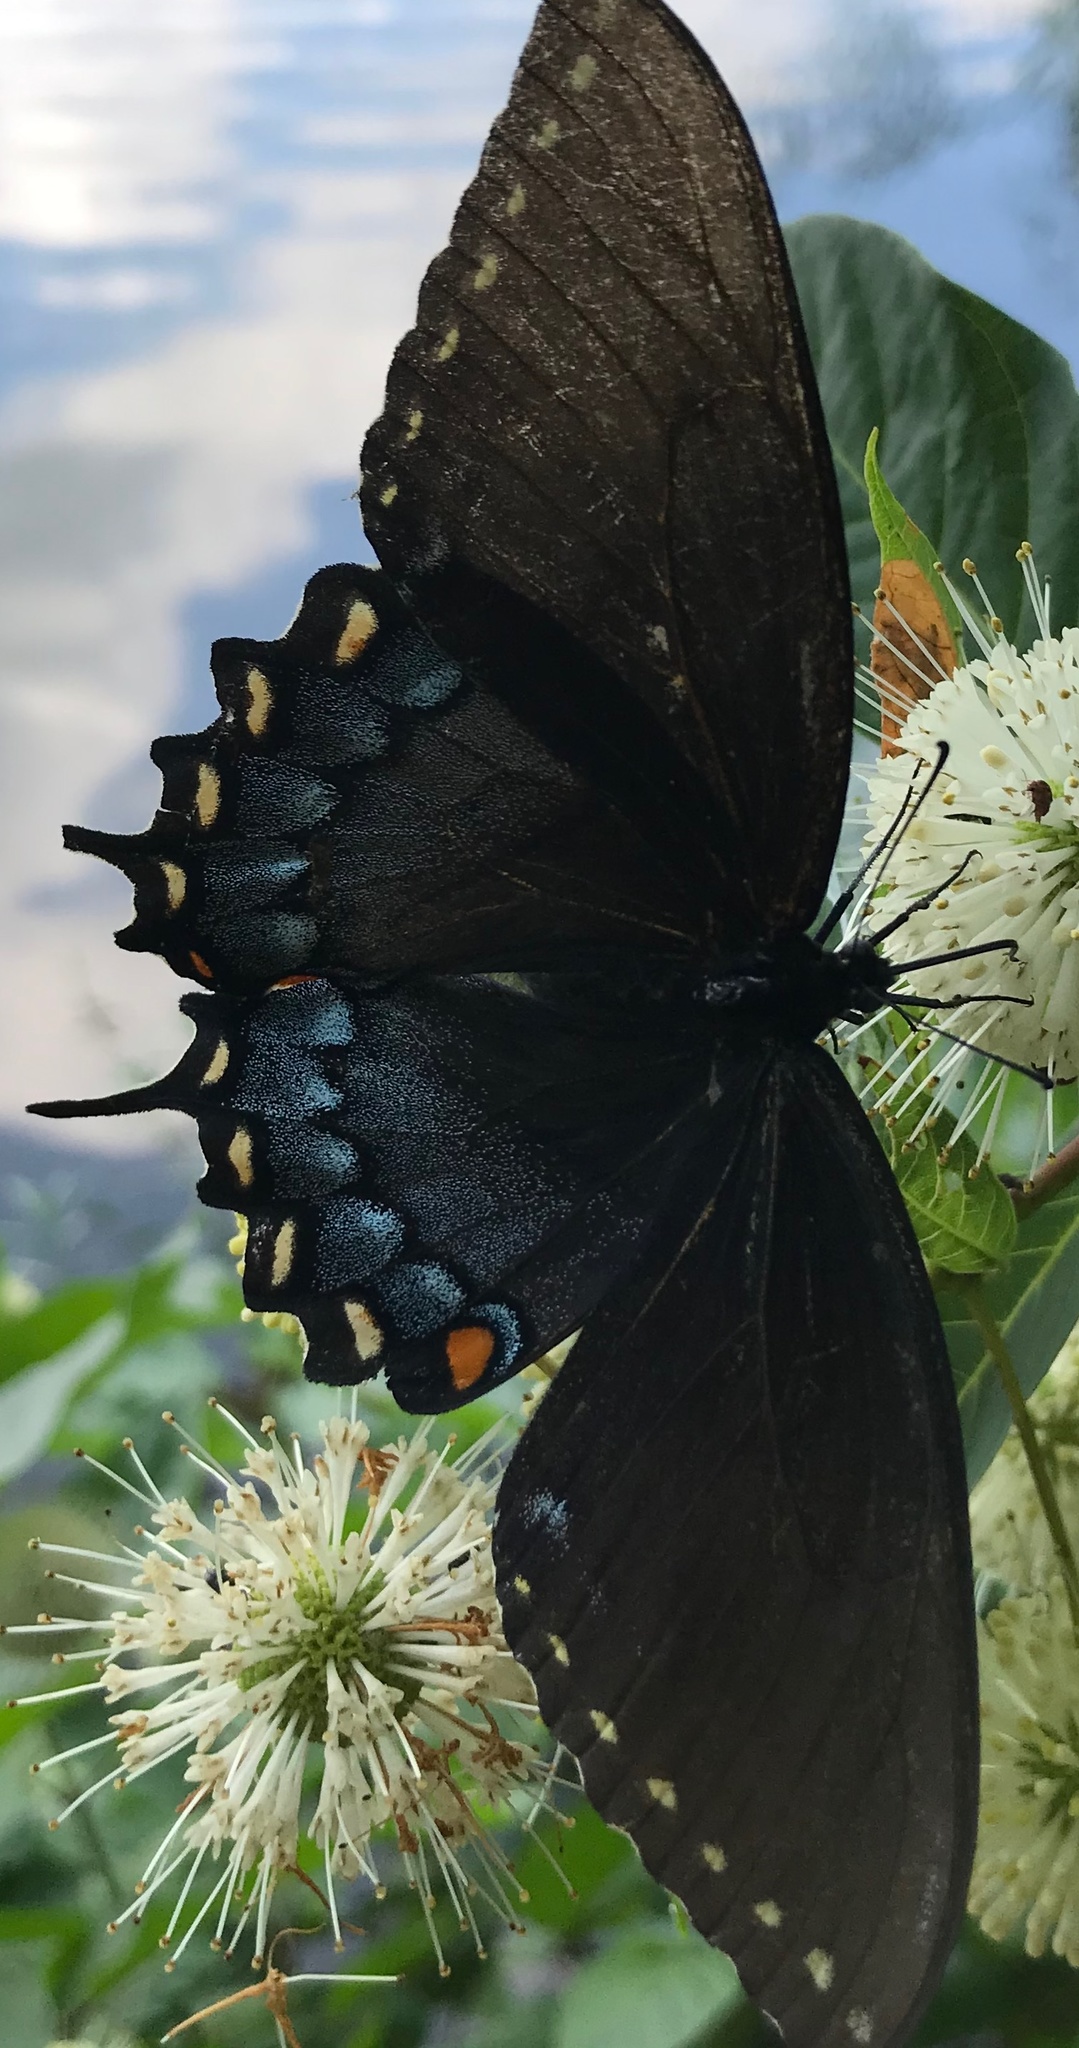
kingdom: Animalia
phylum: Arthropoda
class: Insecta
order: Lepidoptera
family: Papilionidae
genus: Papilio
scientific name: Papilio glaucus
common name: Tiger swallowtail
